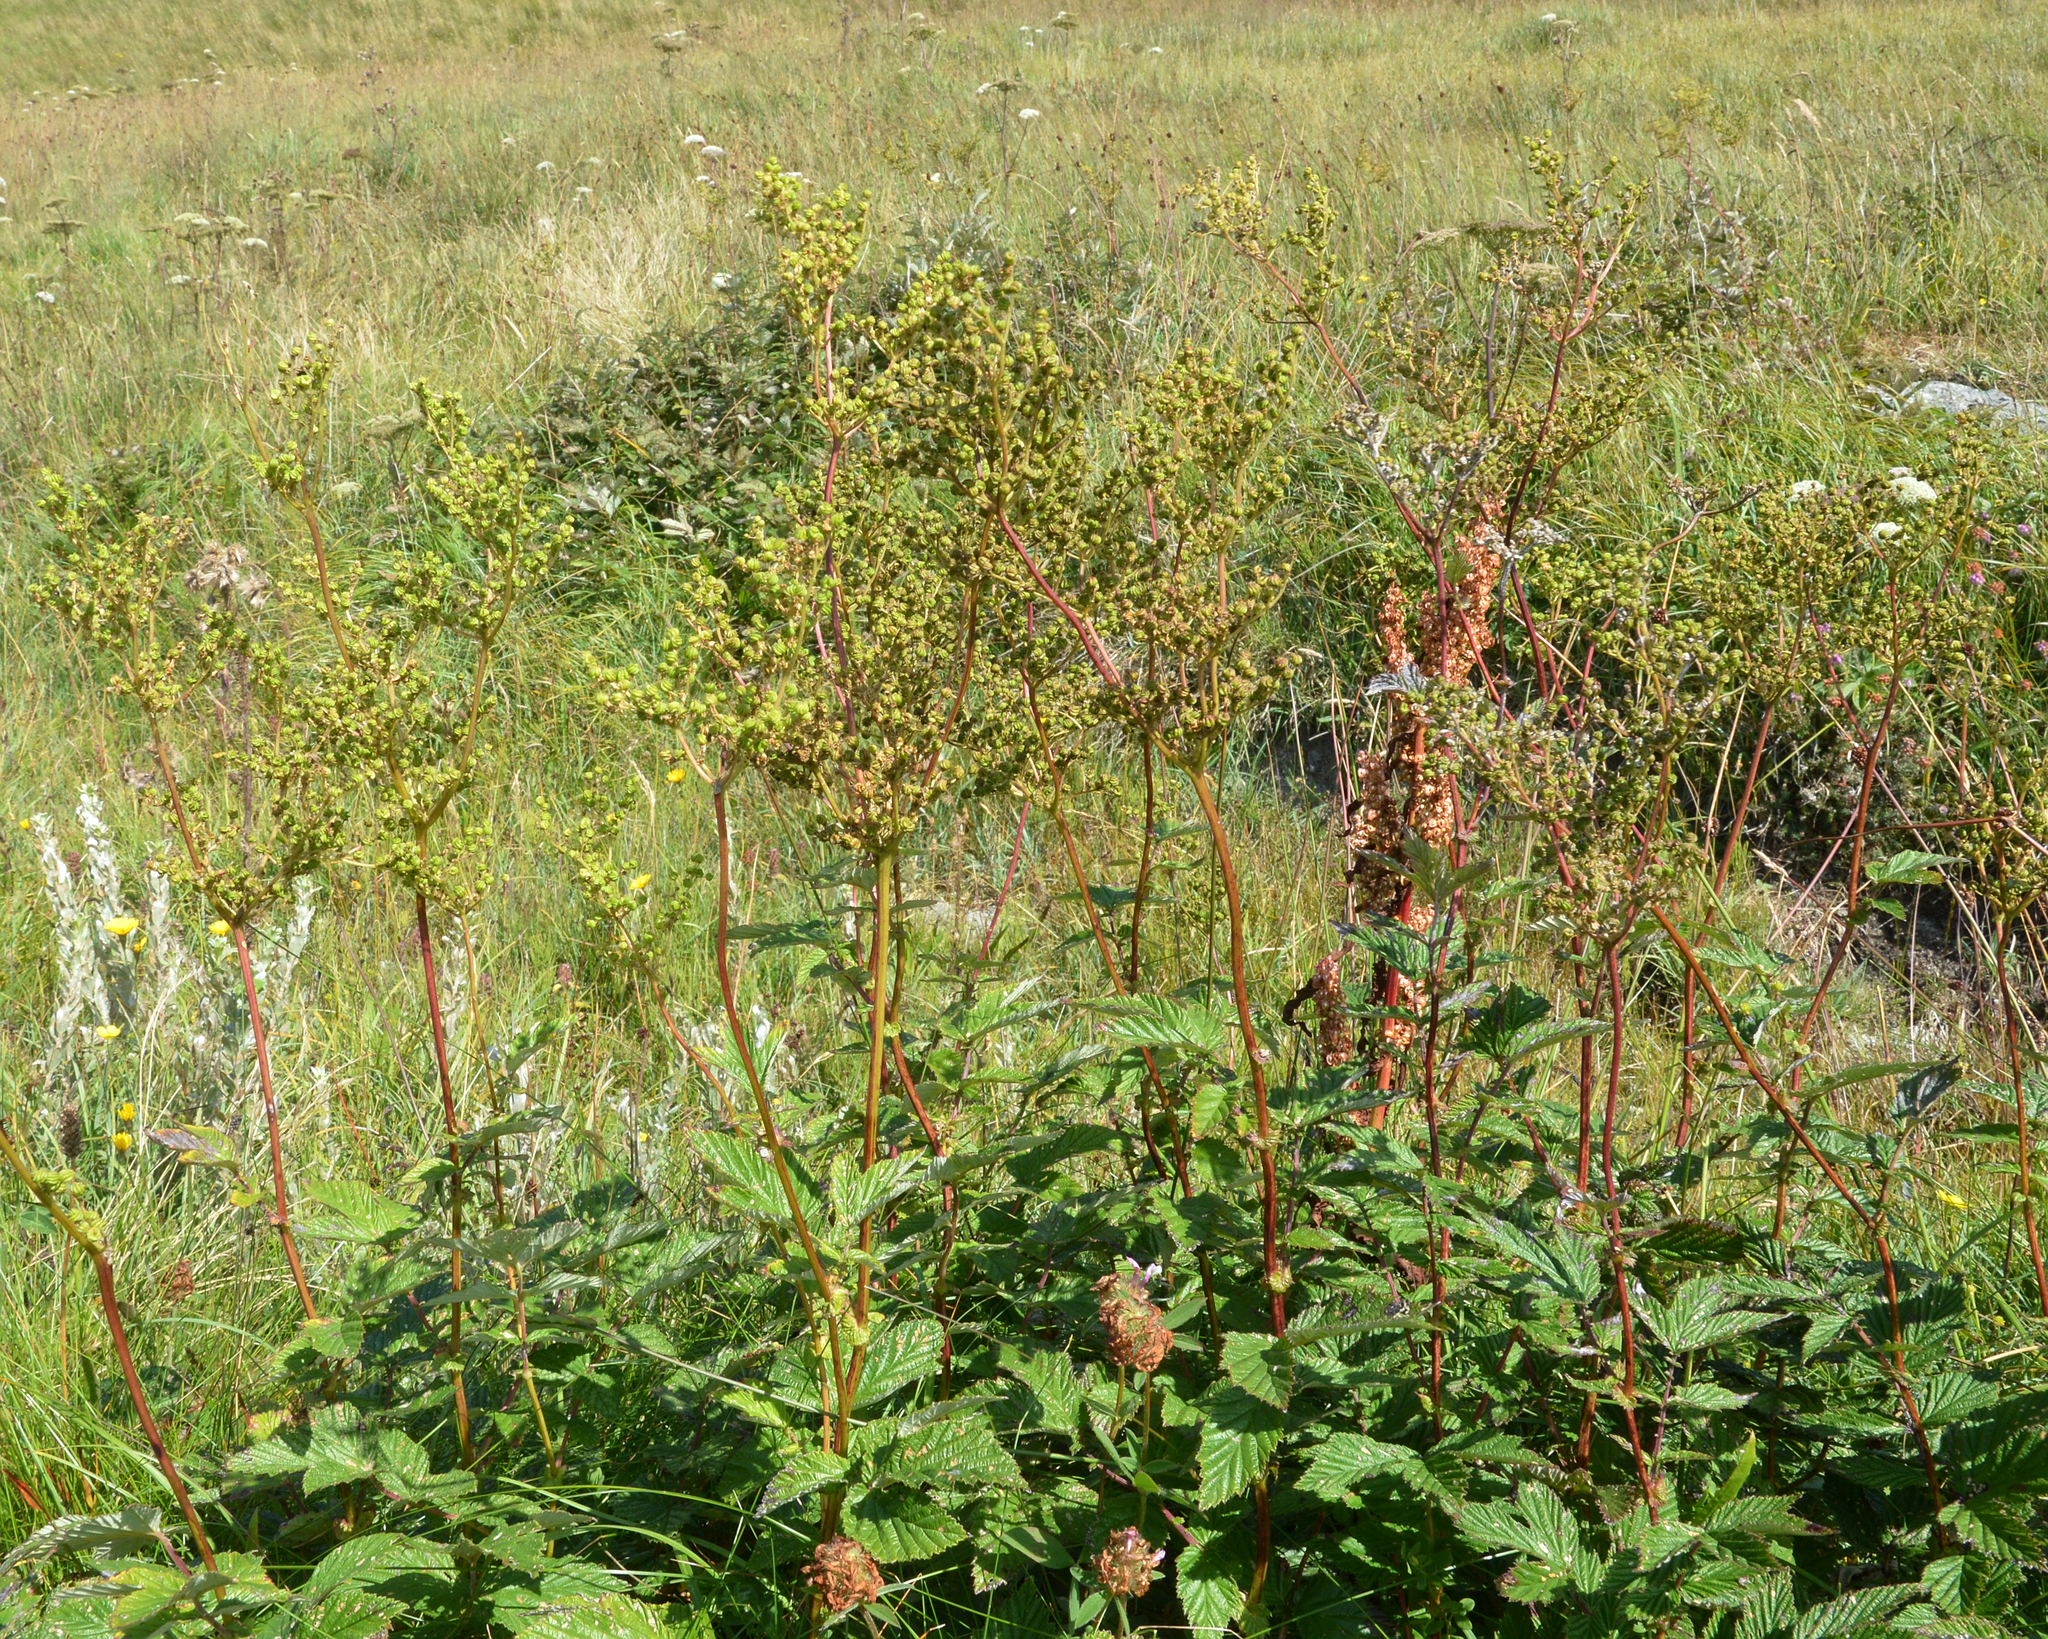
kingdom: Plantae
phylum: Tracheophyta
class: Magnoliopsida
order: Rosales
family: Rosaceae
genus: Filipendula
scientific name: Filipendula ulmaria
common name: Meadowsweet
